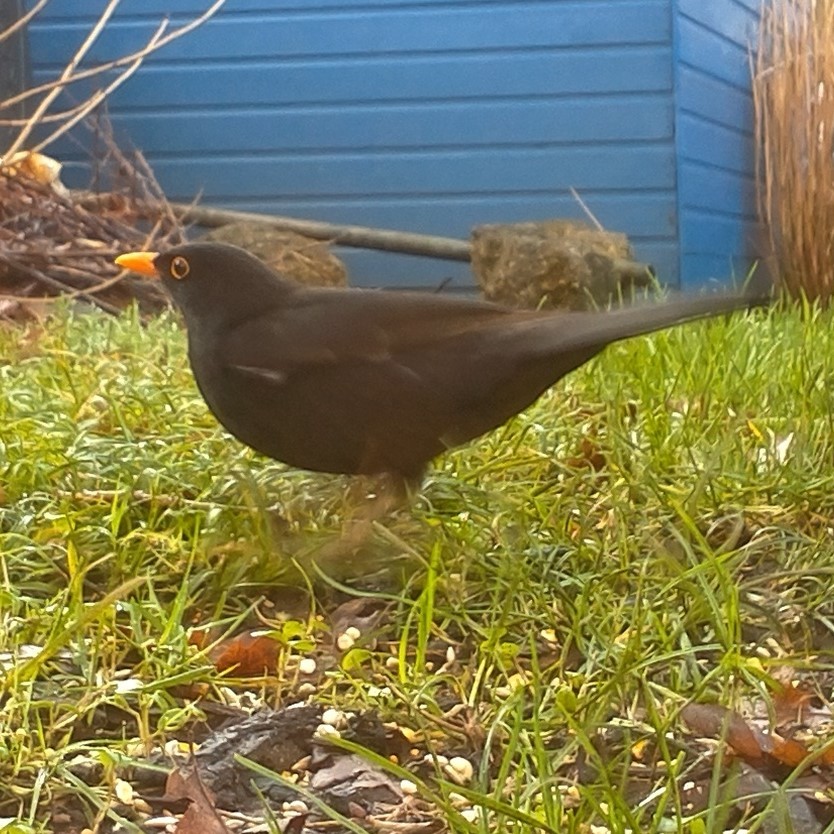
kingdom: Animalia
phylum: Chordata
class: Aves
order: Passeriformes
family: Turdidae
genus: Turdus
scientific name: Turdus merula
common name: Common blackbird
